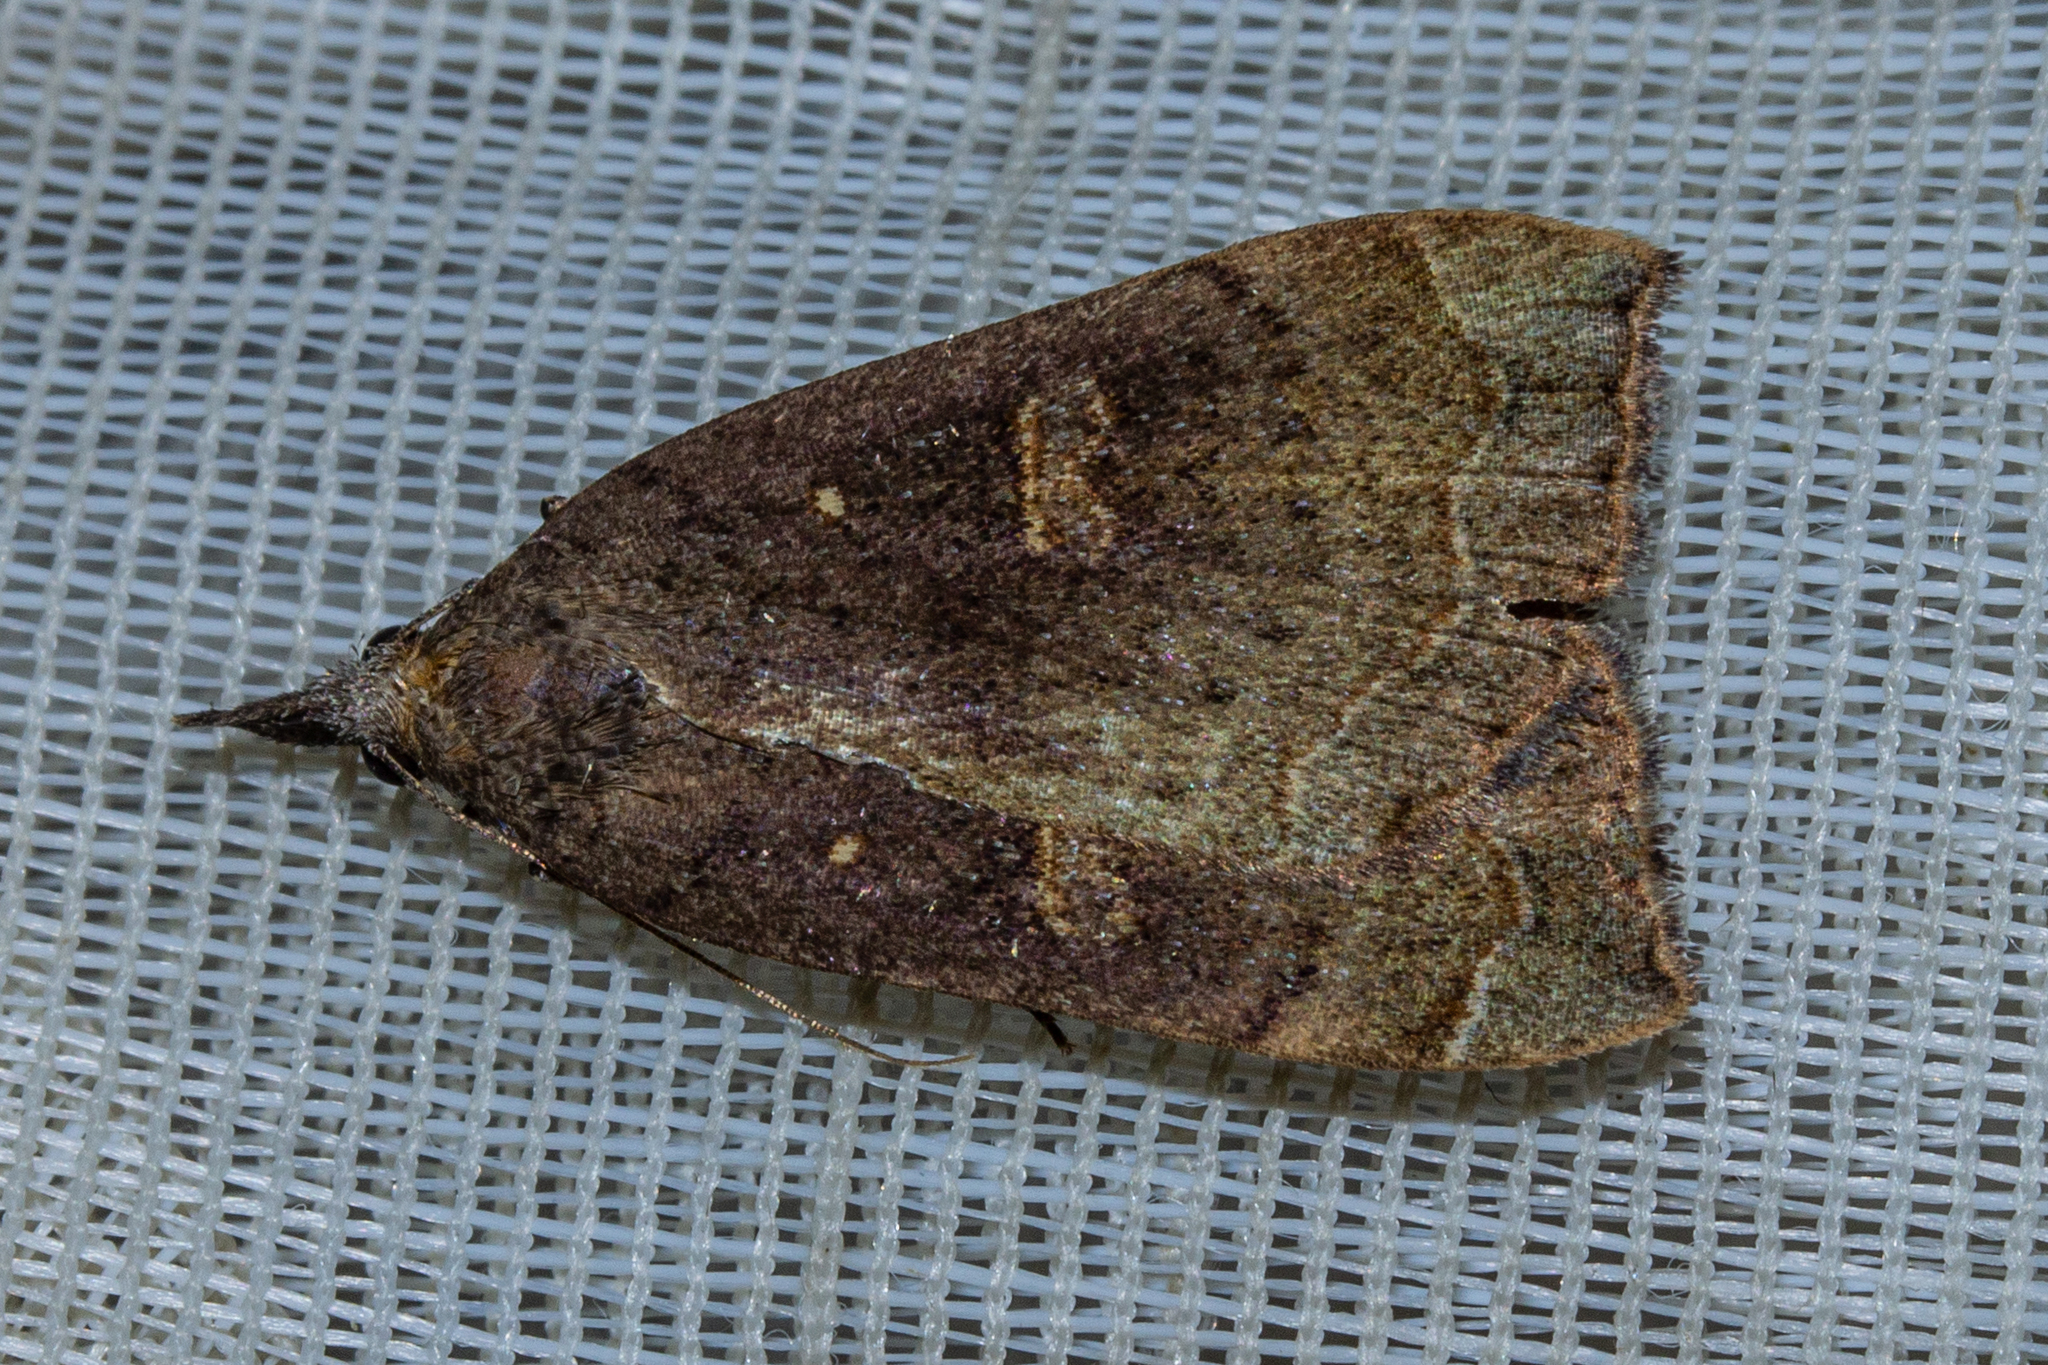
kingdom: Animalia
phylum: Arthropoda
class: Insecta
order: Lepidoptera
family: Erebidae
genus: Rhapsa
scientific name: Rhapsa scotosialis
